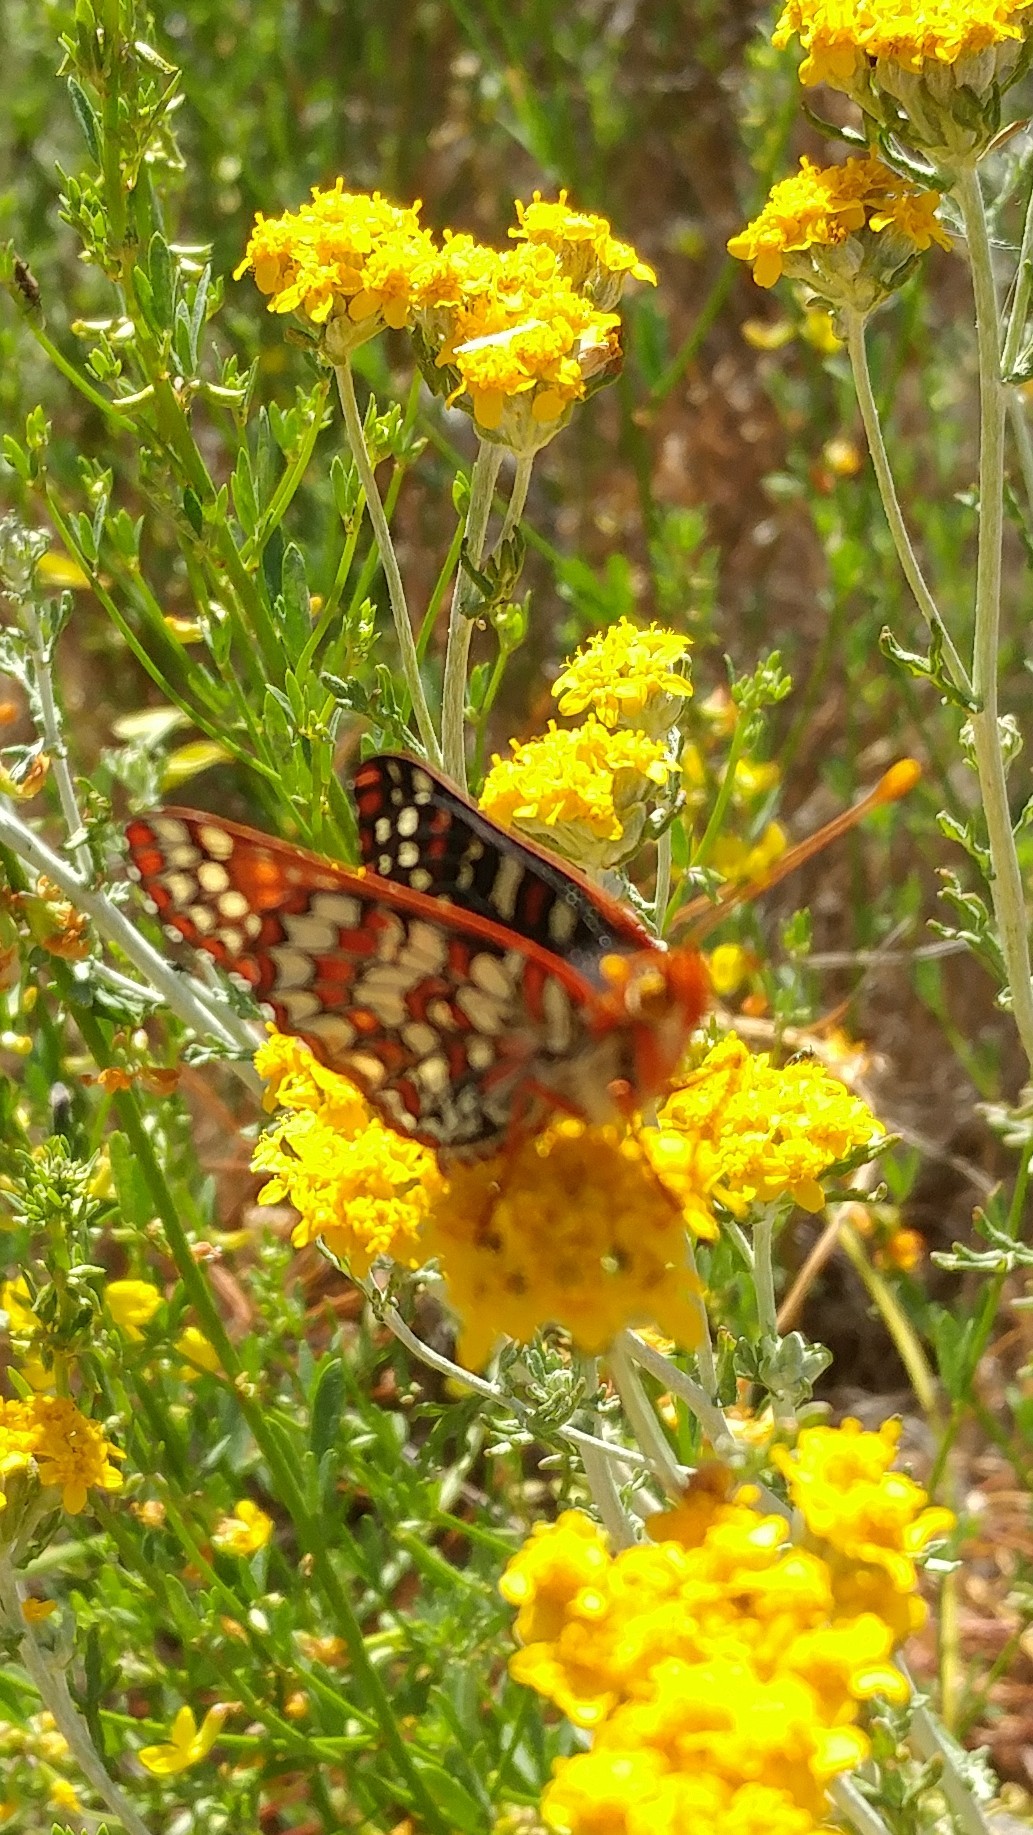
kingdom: Animalia
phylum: Arthropoda
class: Insecta
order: Lepidoptera
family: Nymphalidae
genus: Occidryas
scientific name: Occidryas chalcedona
